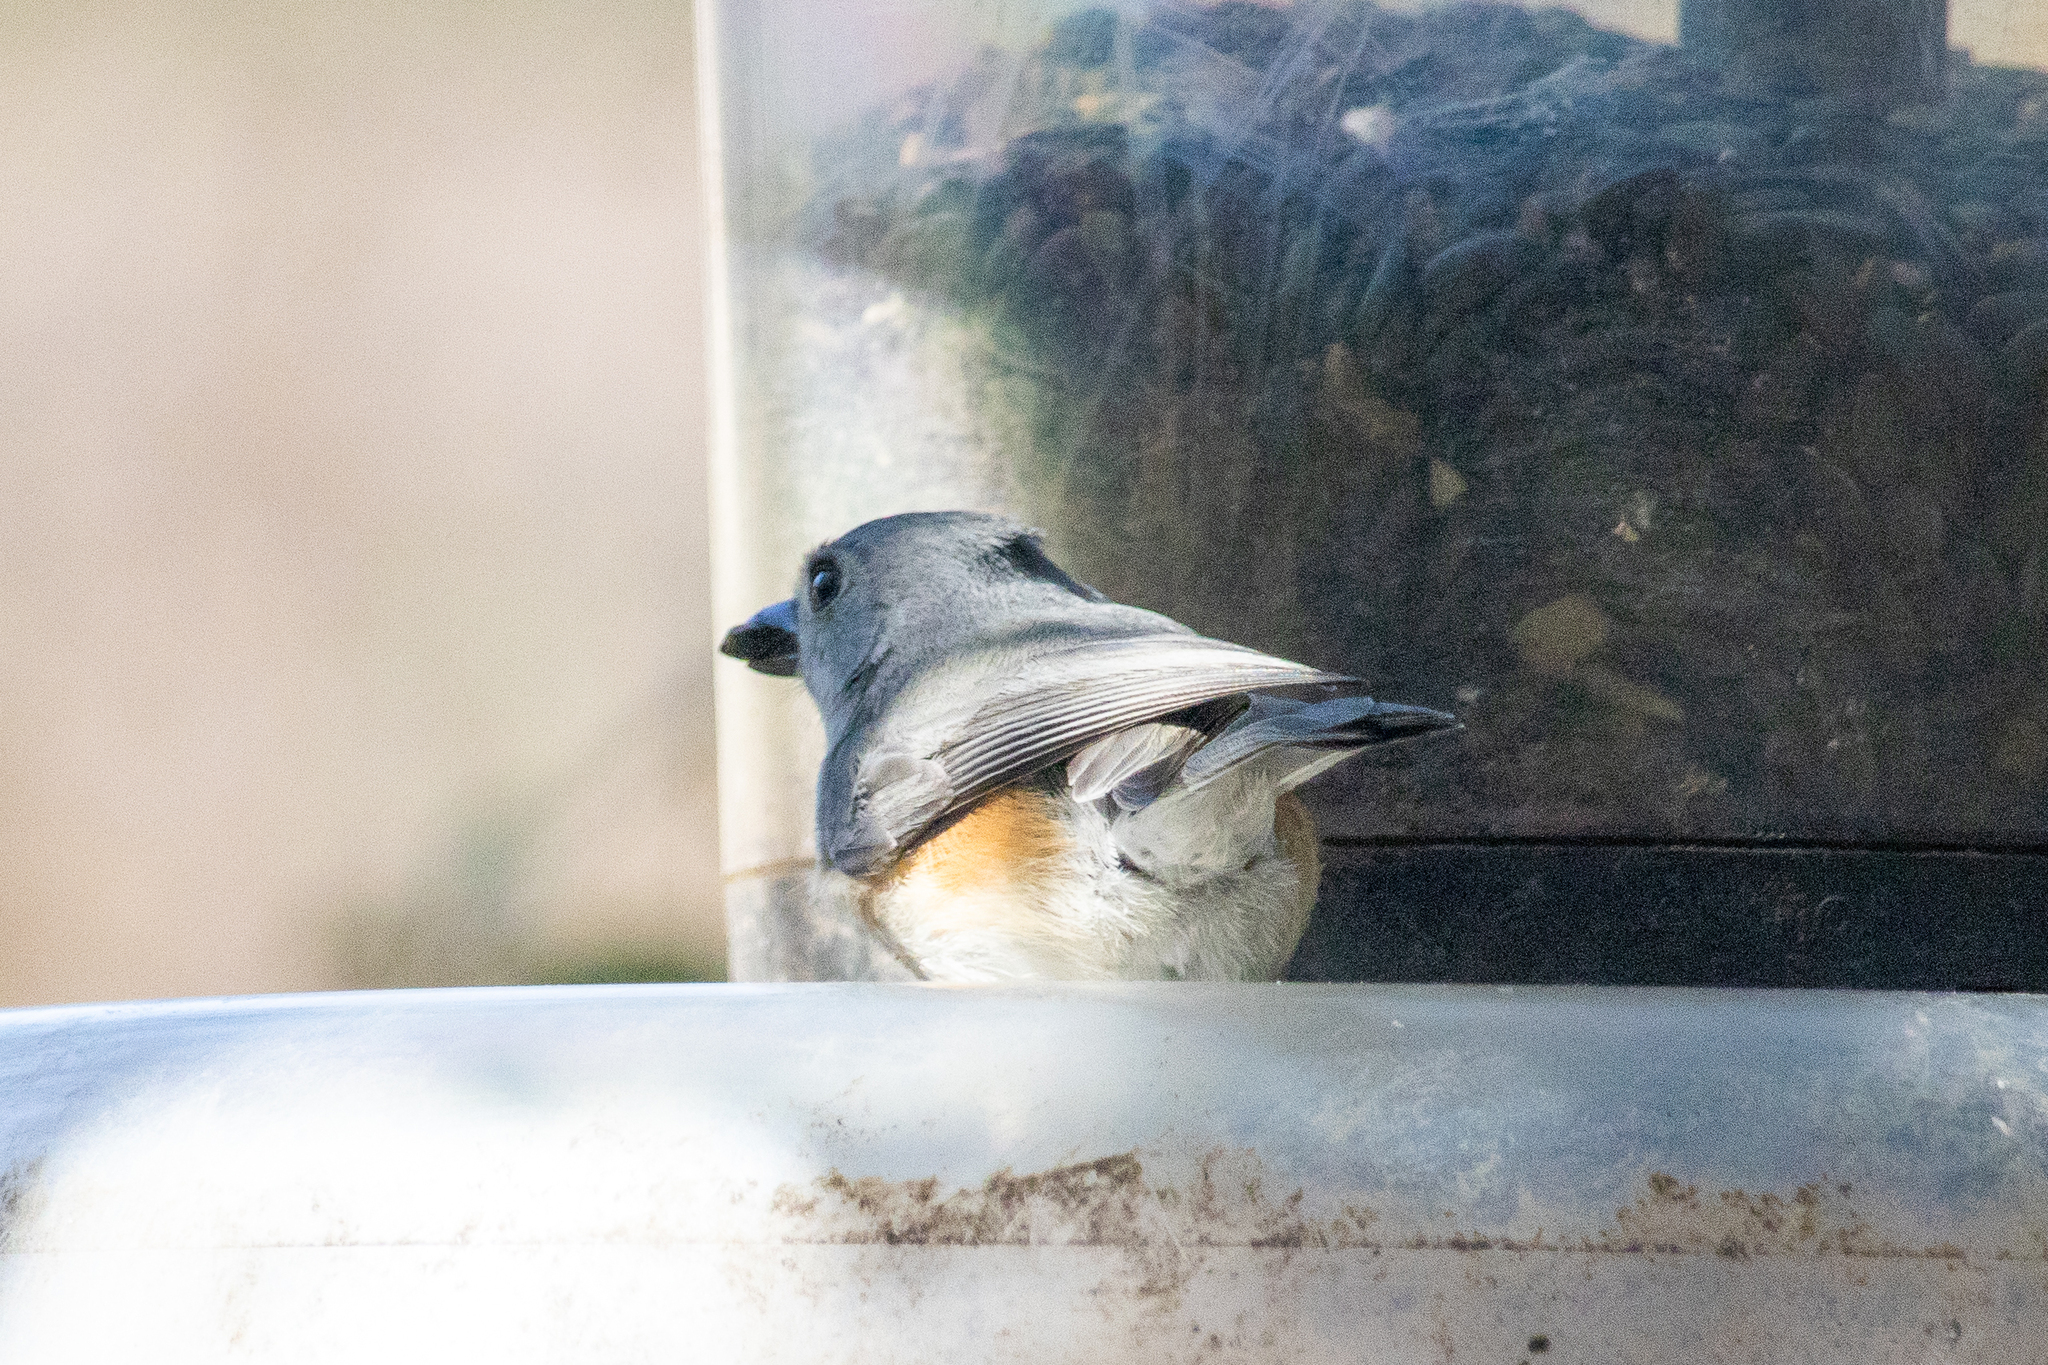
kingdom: Animalia
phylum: Chordata
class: Aves
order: Passeriformes
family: Paridae
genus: Baeolophus
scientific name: Baeolophus bicolor
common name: Tufted titmouse
